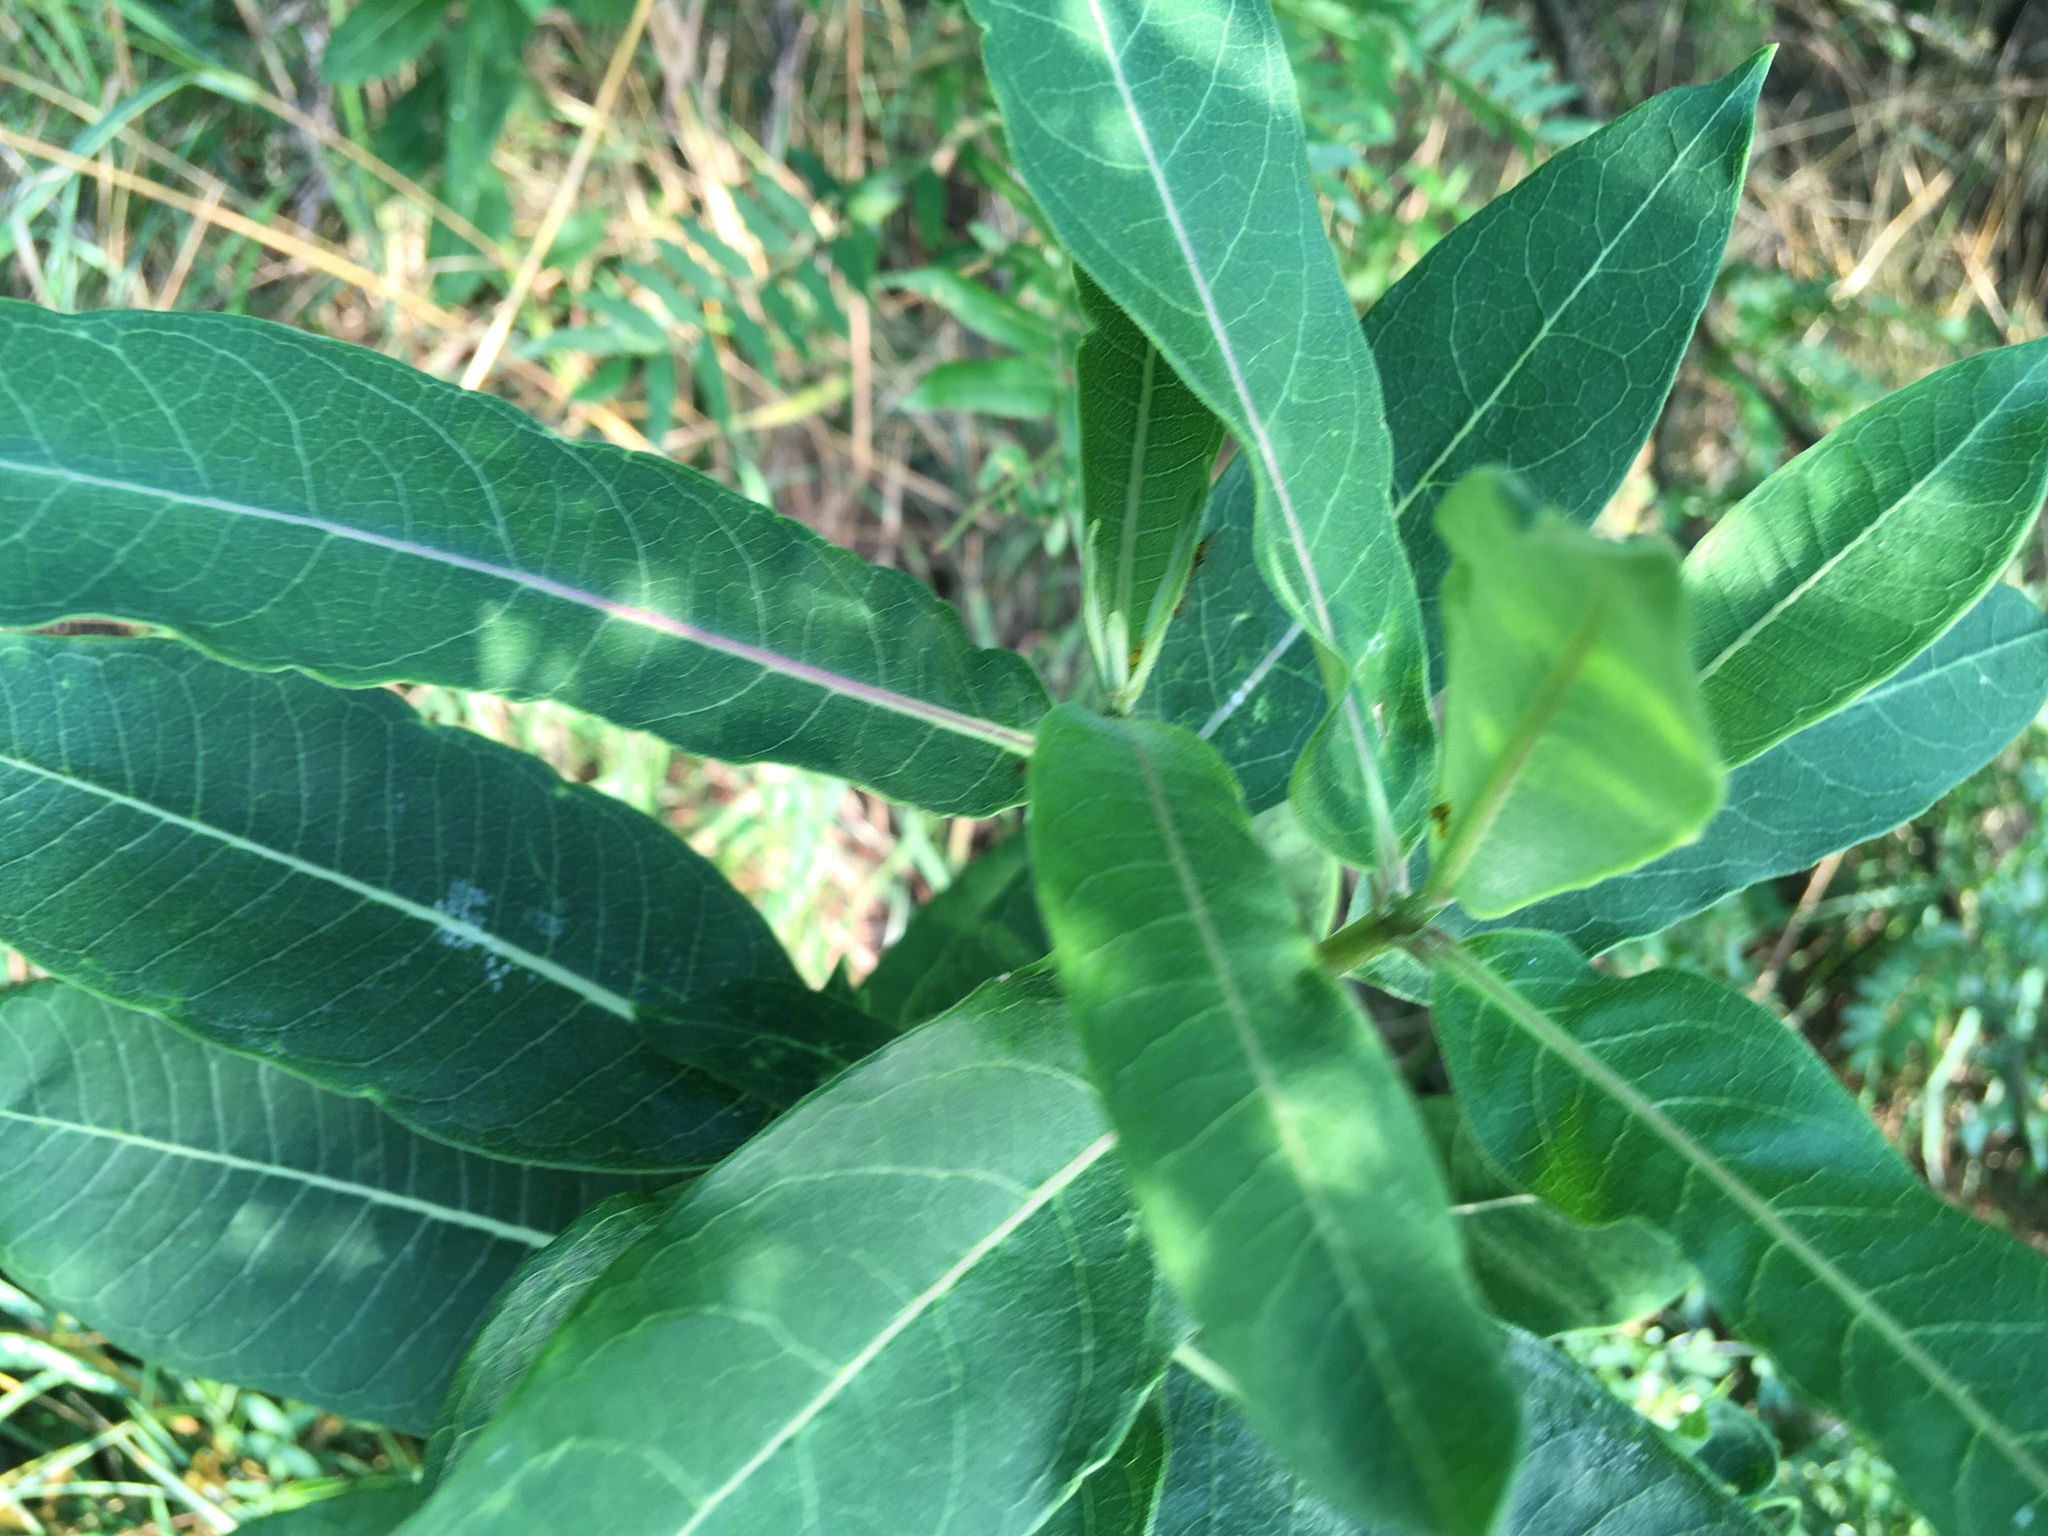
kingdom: Plantae
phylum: Tracheophyta
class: Magnoliopsida
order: Gentianales
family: Apocynaceae
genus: Asclepias
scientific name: Asclepias syriaca
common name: Common milkweed
